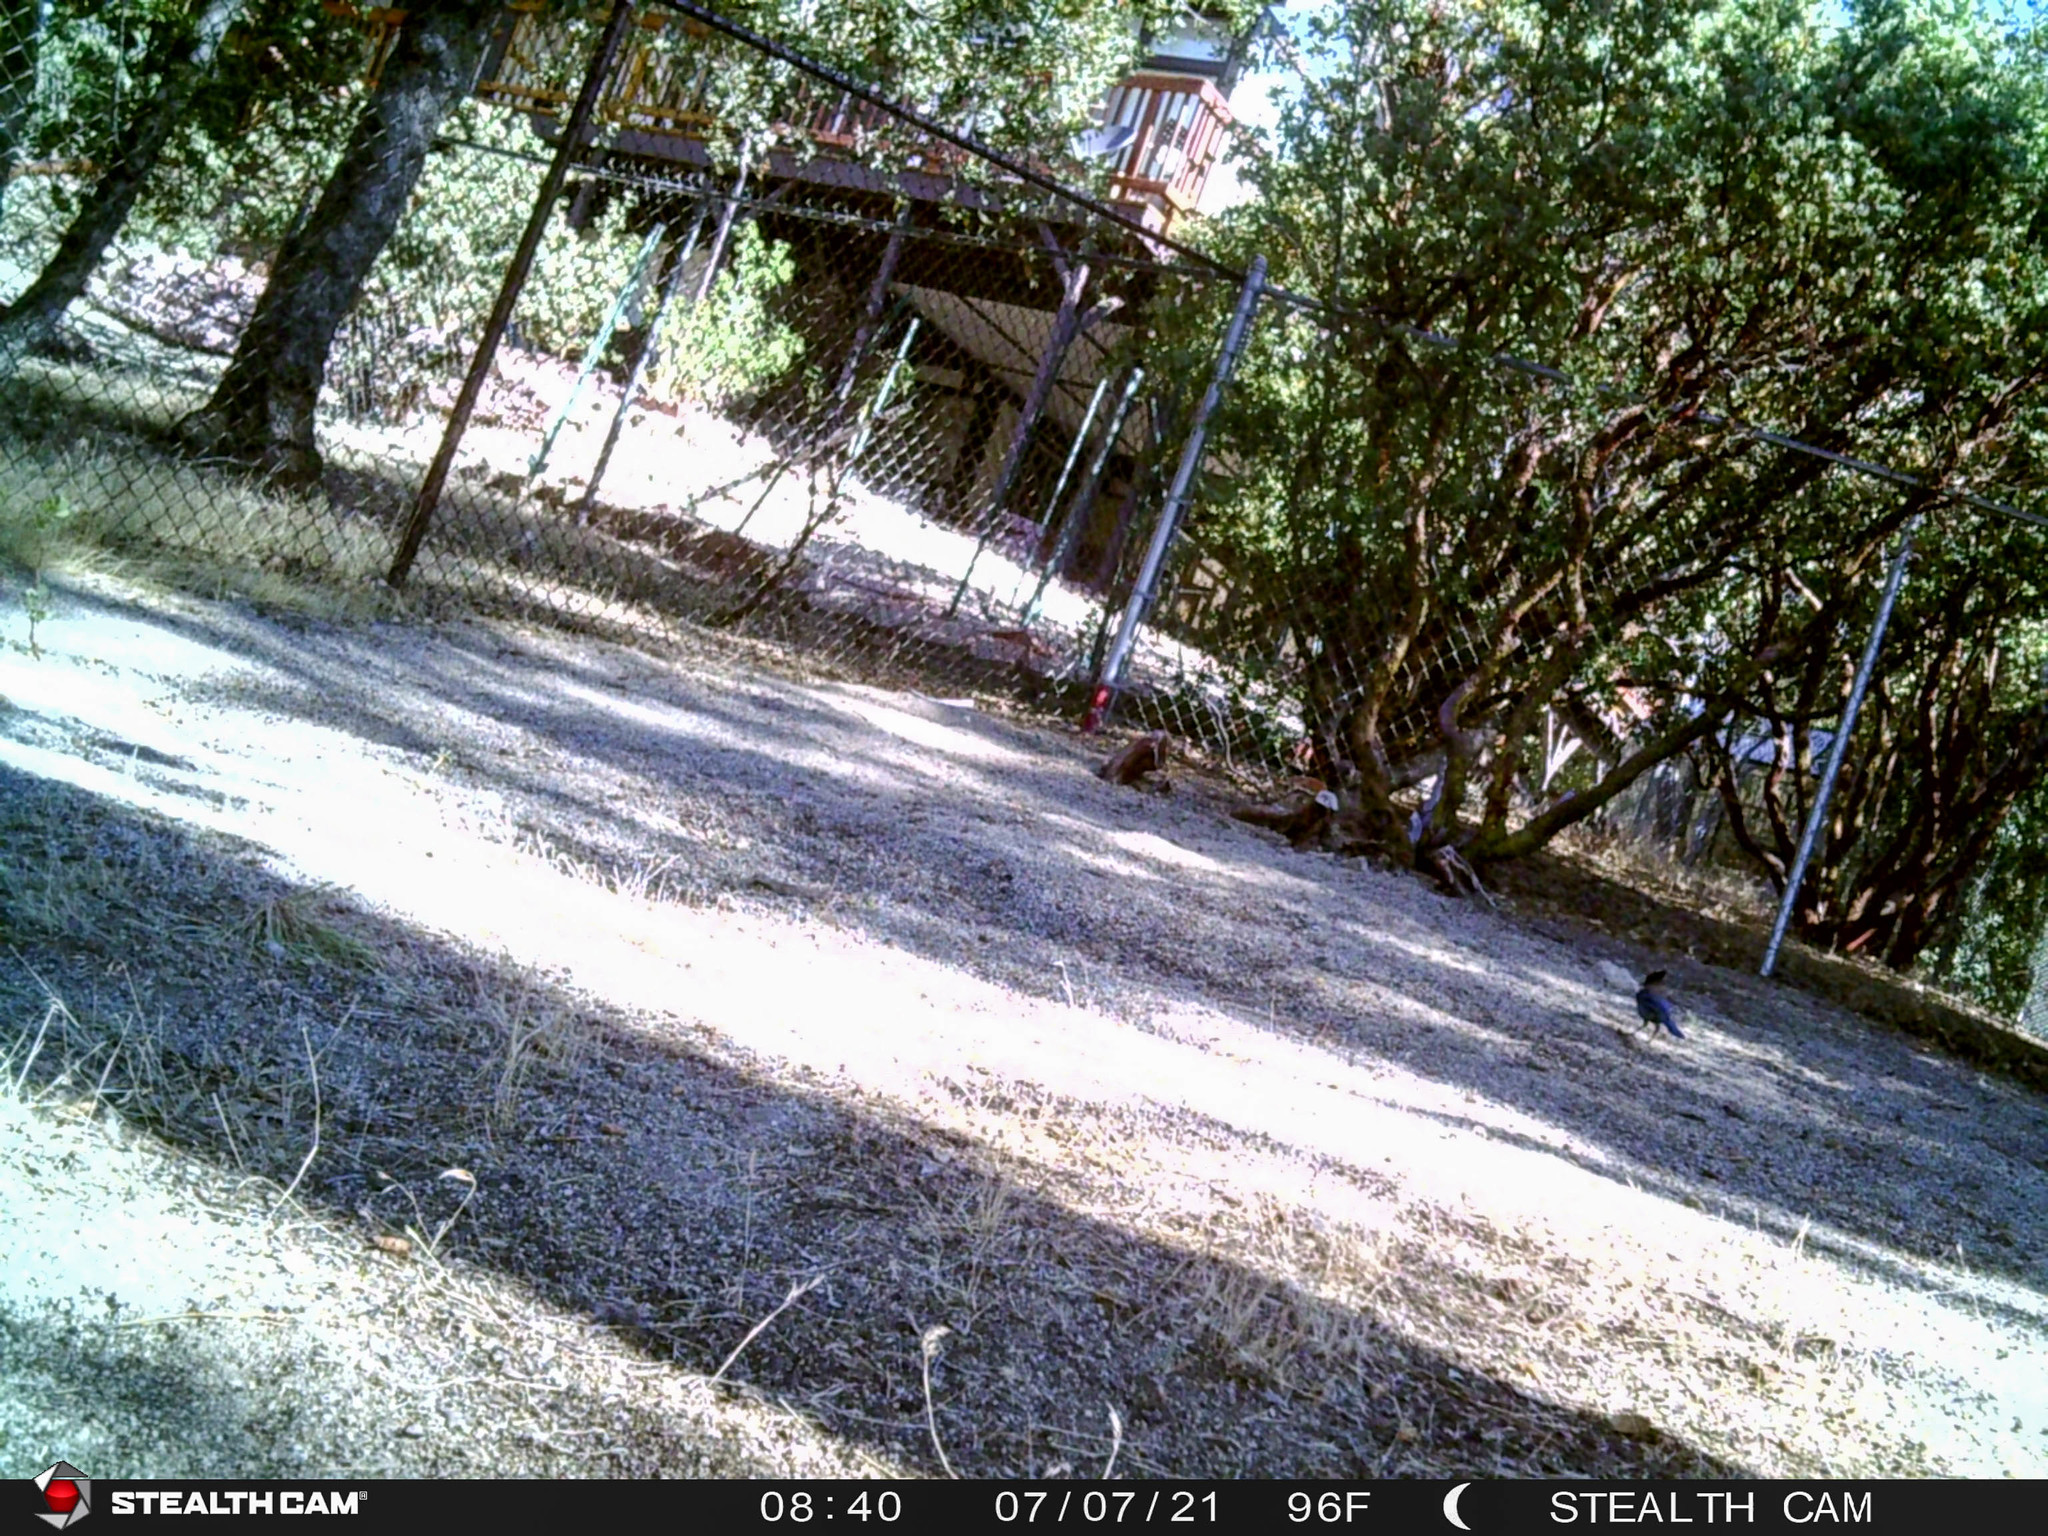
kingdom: Animalia
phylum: Chordata
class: Aves
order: Passeriformes
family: Corvidae
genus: Cyanocitta
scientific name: Cyanocitta stelleri
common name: Steller's jay
